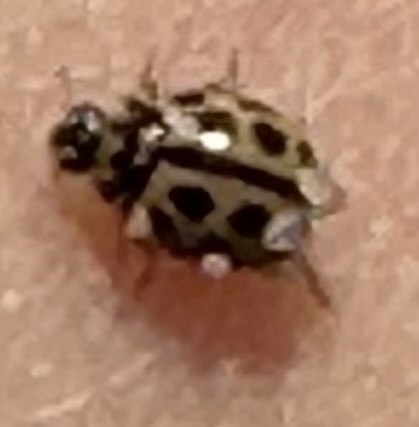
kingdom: Animalia
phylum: Arthropoda
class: Insecta
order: Coleoptera
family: Coccinellidae
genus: Tytthaspis
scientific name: Tytthaspis sedecimpunctata
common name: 16-spot ladybird
